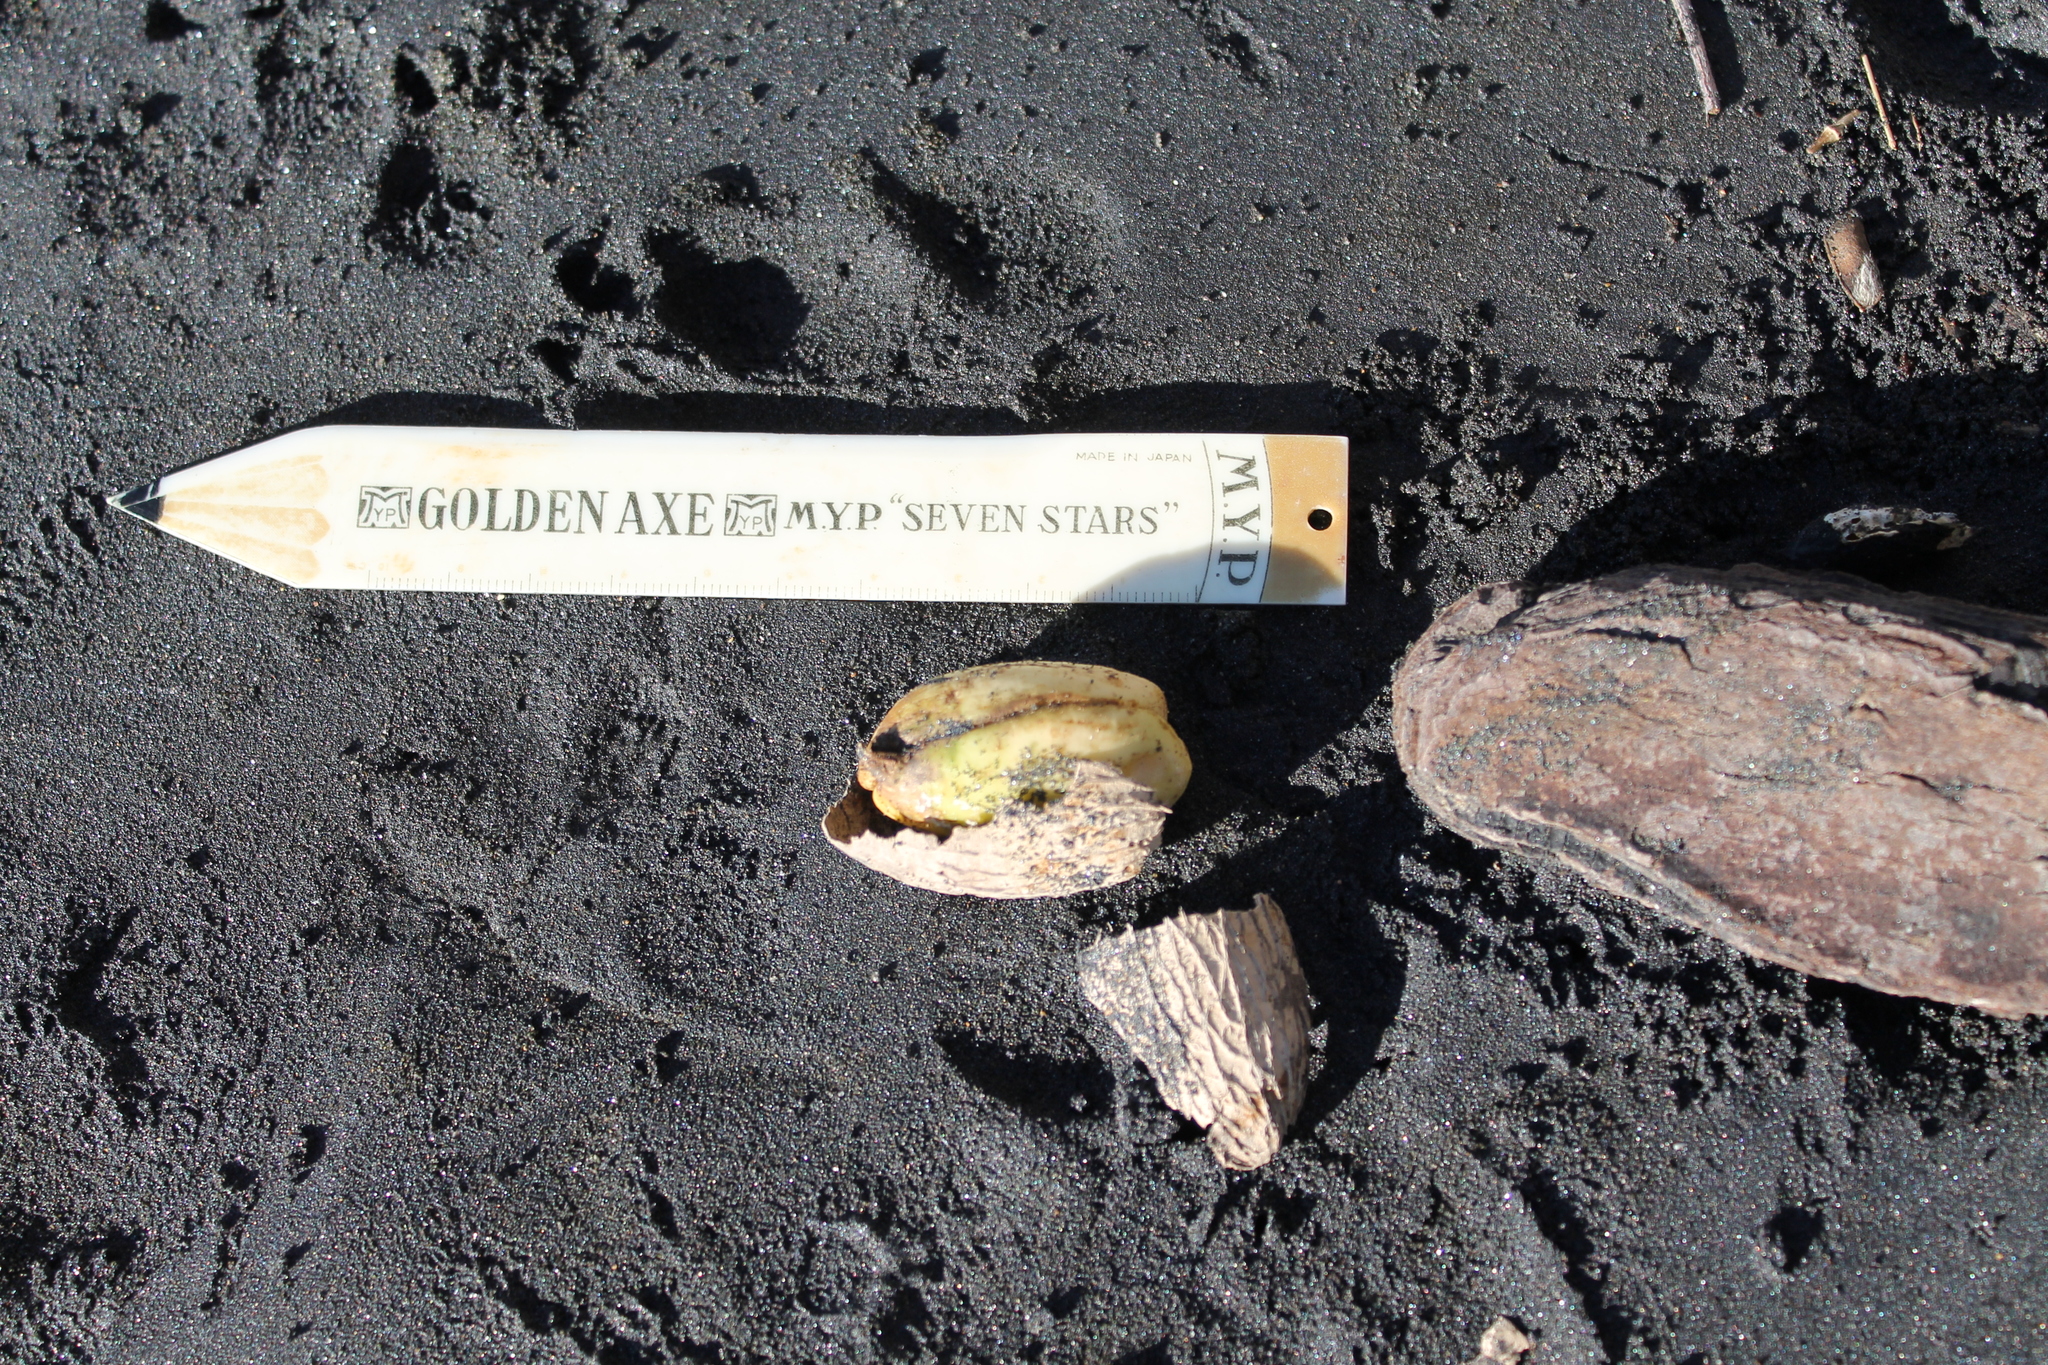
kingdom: Plantae
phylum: Tracheophyta
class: Magnoliopsida
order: Cucurbitales
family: Corynocarpaceae
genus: Corynocarpus
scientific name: Corynocarpus laevigatus
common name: New zealand laurel
